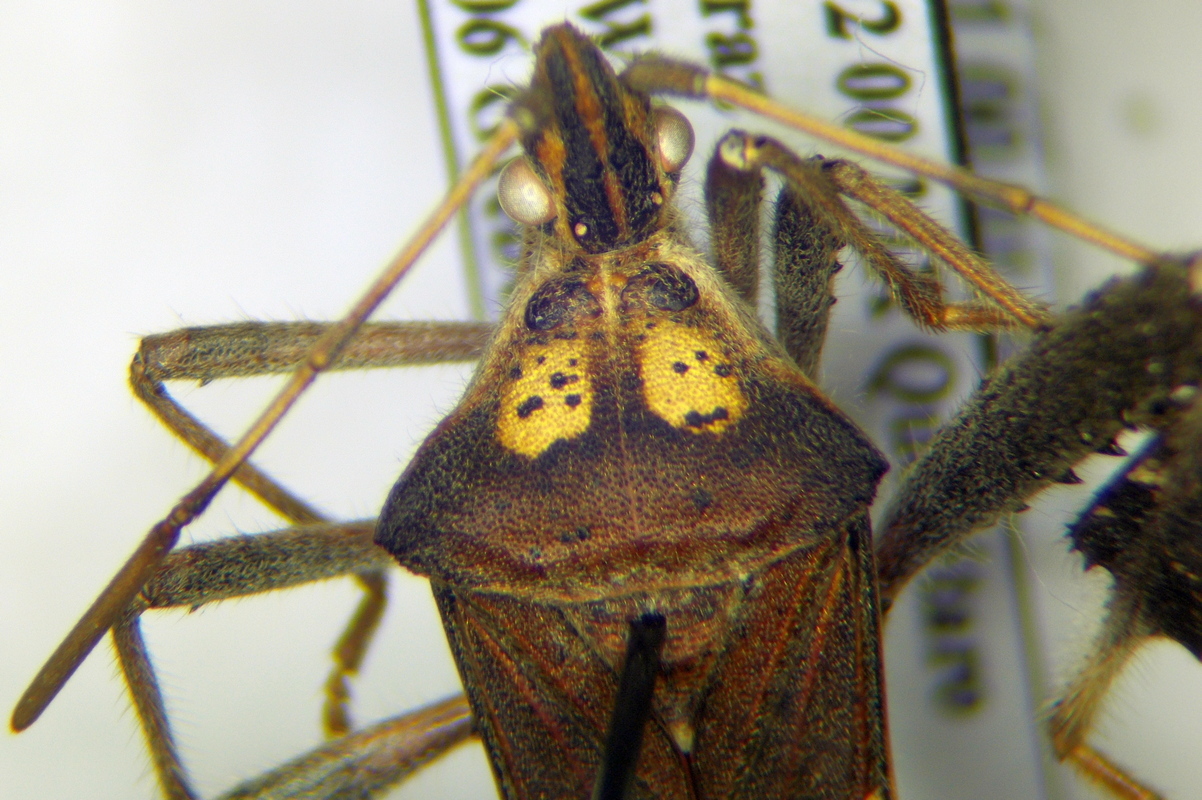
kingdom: Animalia
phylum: Arthropoda
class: Insecta
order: Hemiptera
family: Coreidae
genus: Leptoglossus
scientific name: Leptoglossus zonatus
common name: Large-legged bug
